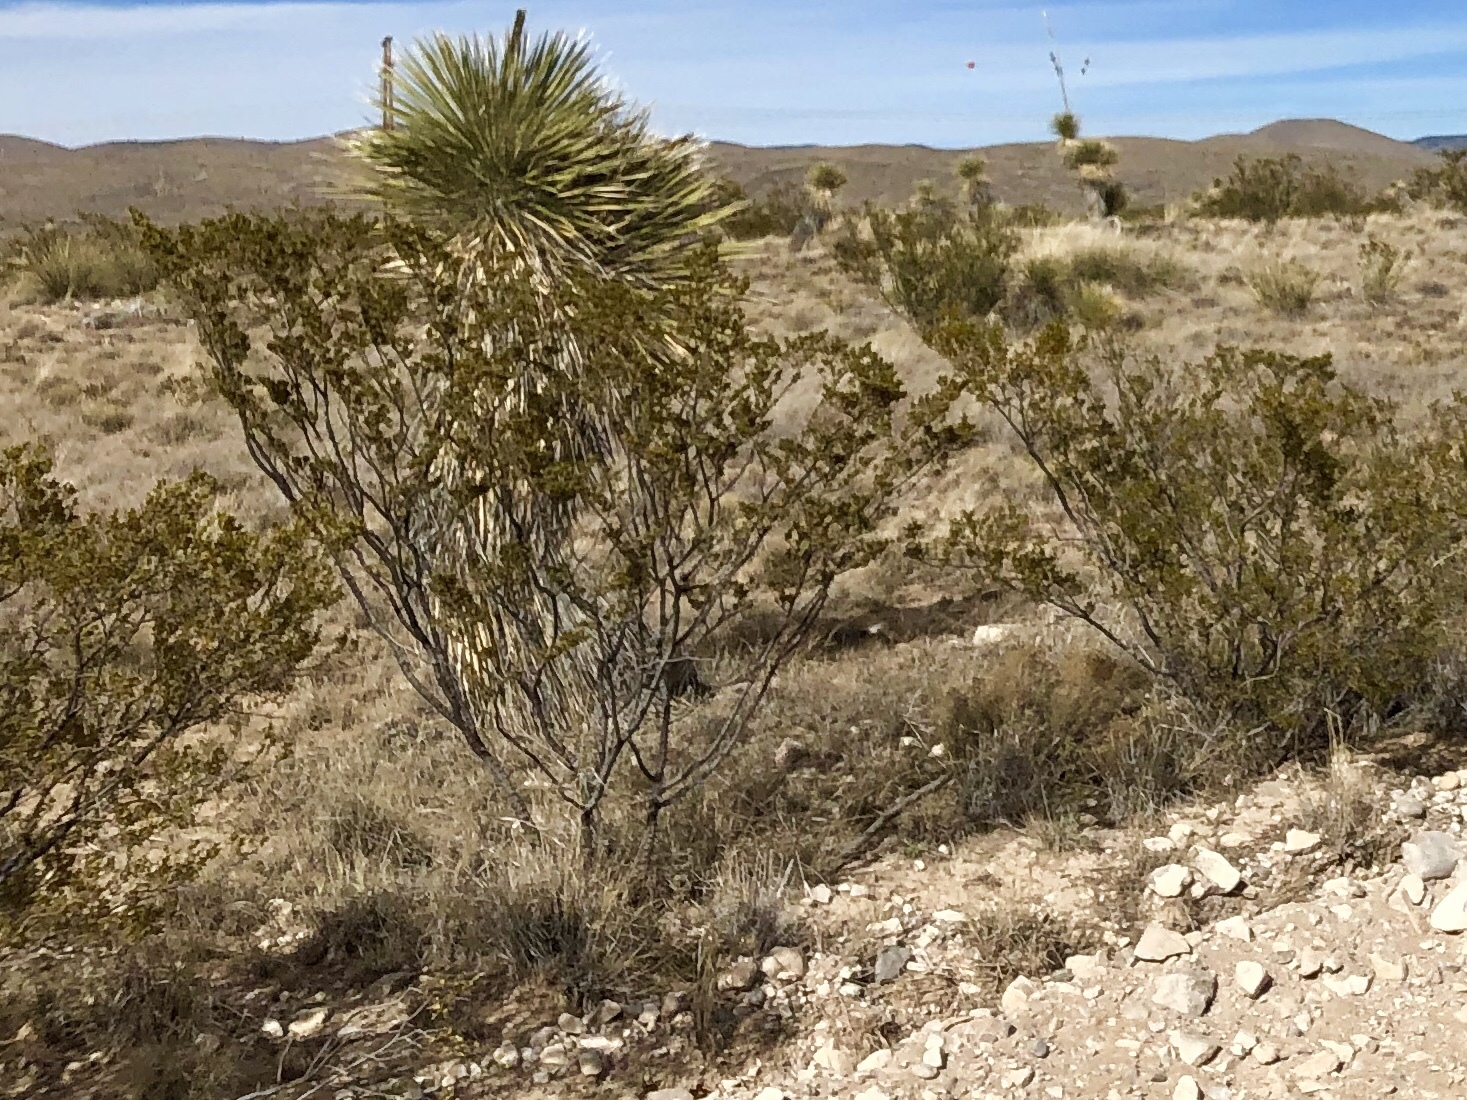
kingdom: Plantae
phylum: Tracheophyta
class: Magnoliopsida
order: Zygophyllales
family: Zygophyllaceae
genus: Larrea
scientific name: Larrea tridentata
